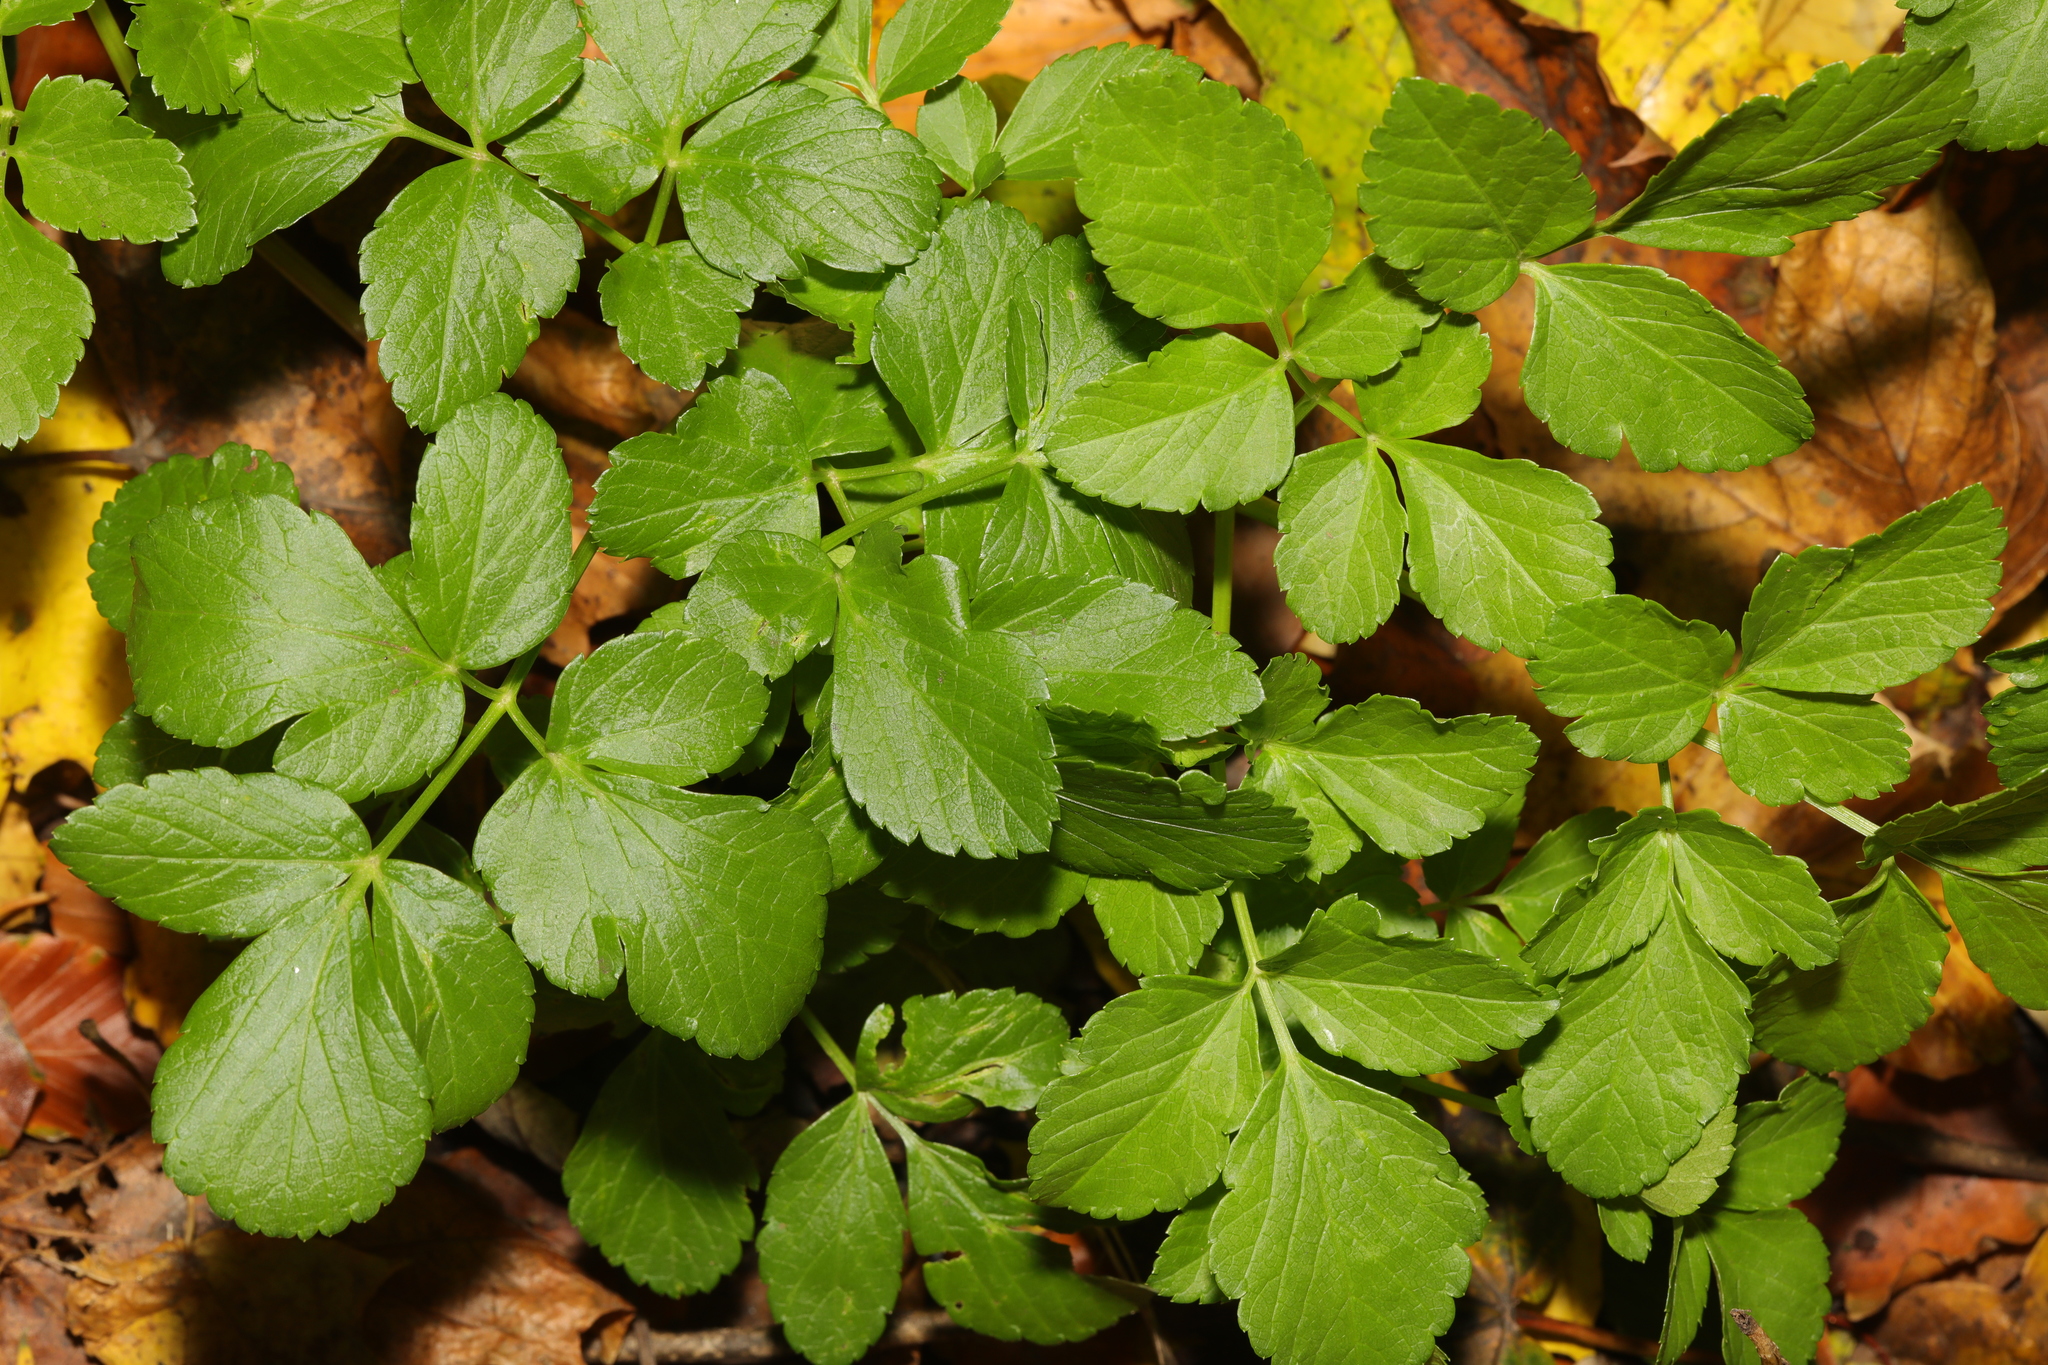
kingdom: Plantae
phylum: Tracheophyta
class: Magnoliopsida
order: Apiales
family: Apiaceae
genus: Smyrnium
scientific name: Smyrnium olusatrum
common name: Alexanders
